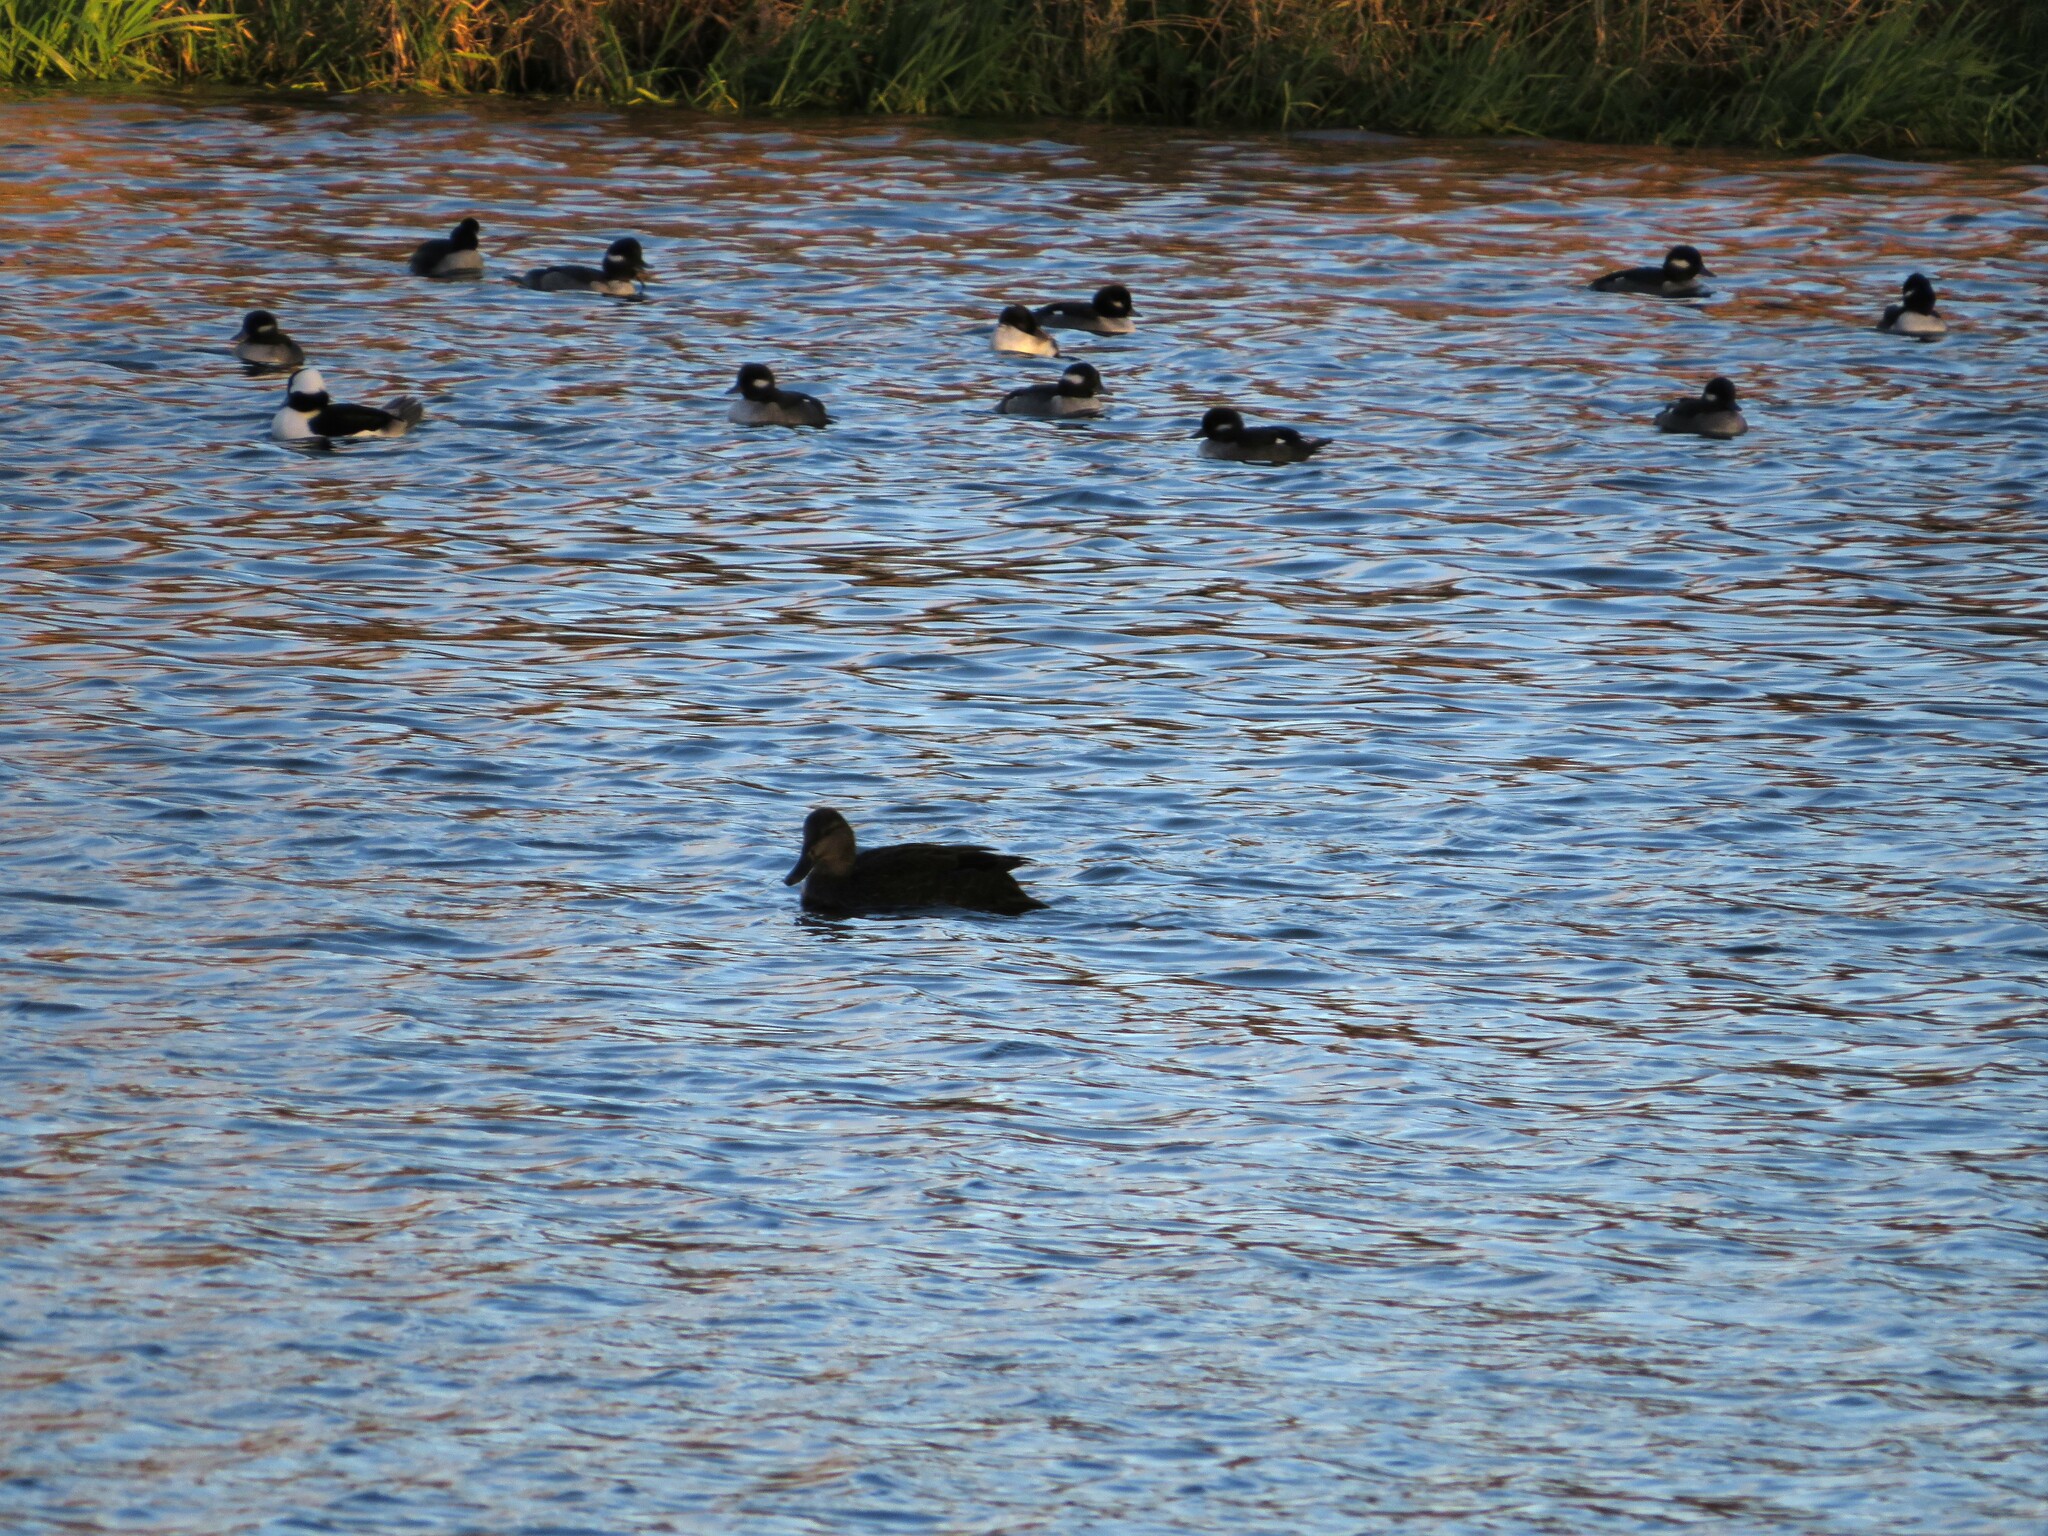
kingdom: Animalia
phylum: Chordata
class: Aves
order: Anseriformes
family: Anatidae
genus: Anas
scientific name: Anas rubripes
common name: American black duck
